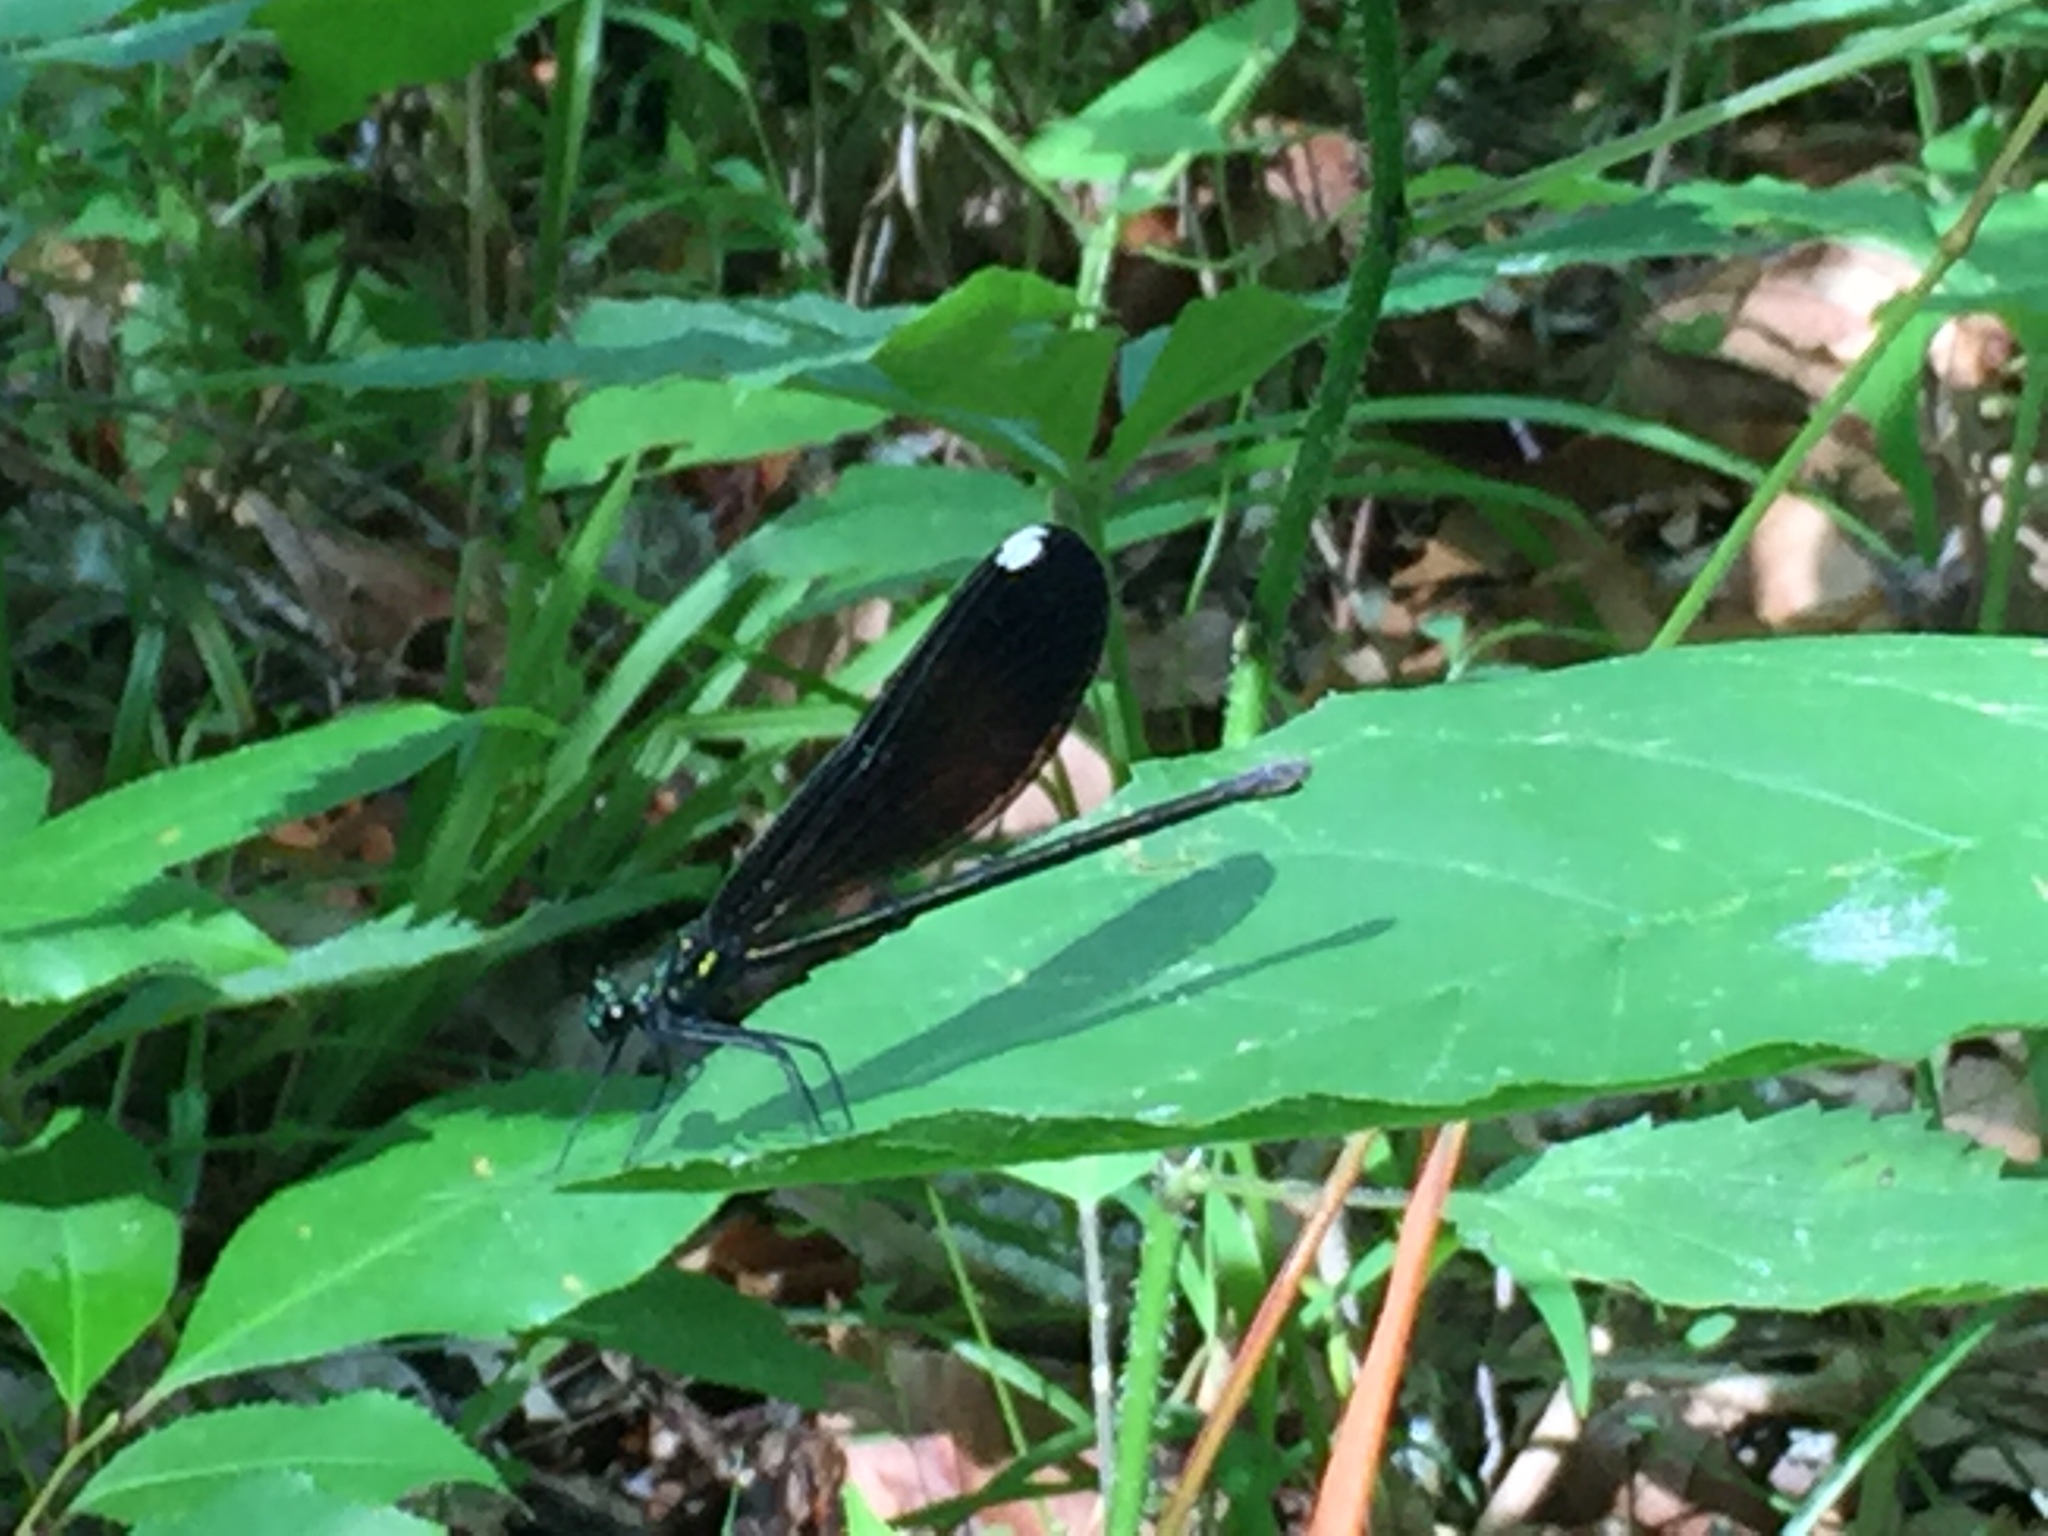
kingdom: Animalia
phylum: Arthropoda
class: Insecta
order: Odonata
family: Calopterygidae
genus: Calopteryx
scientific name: Calopteryx maculata
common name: Ebony jewelwing
